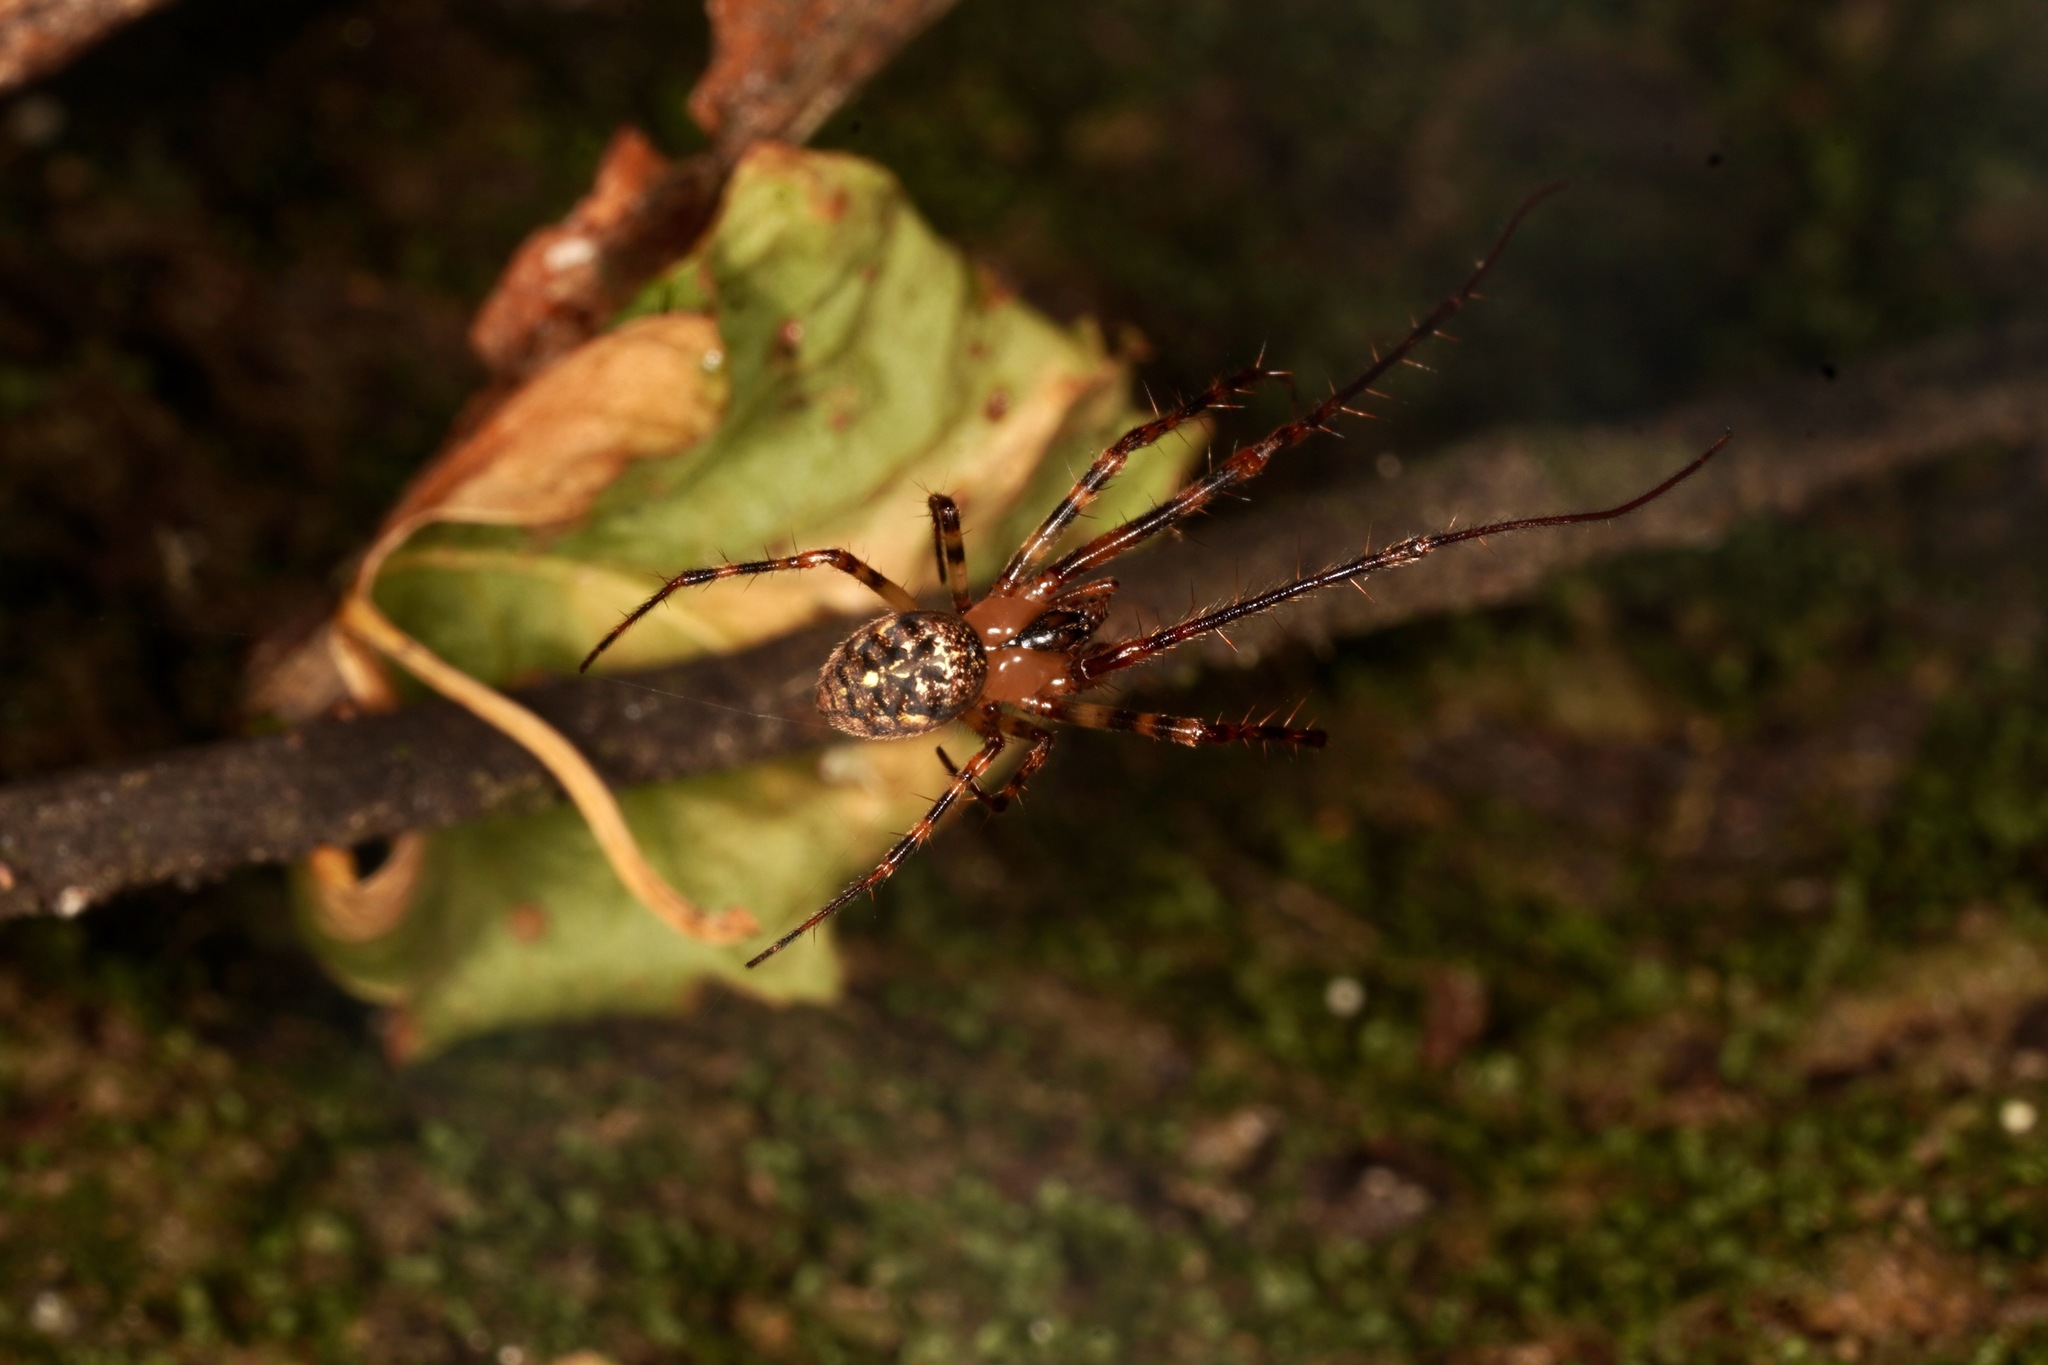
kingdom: Animalia
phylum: Arthropoda
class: Arachnida
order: Araneae
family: Tetragnathidae
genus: Tawhai
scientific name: Tawhai arborea
